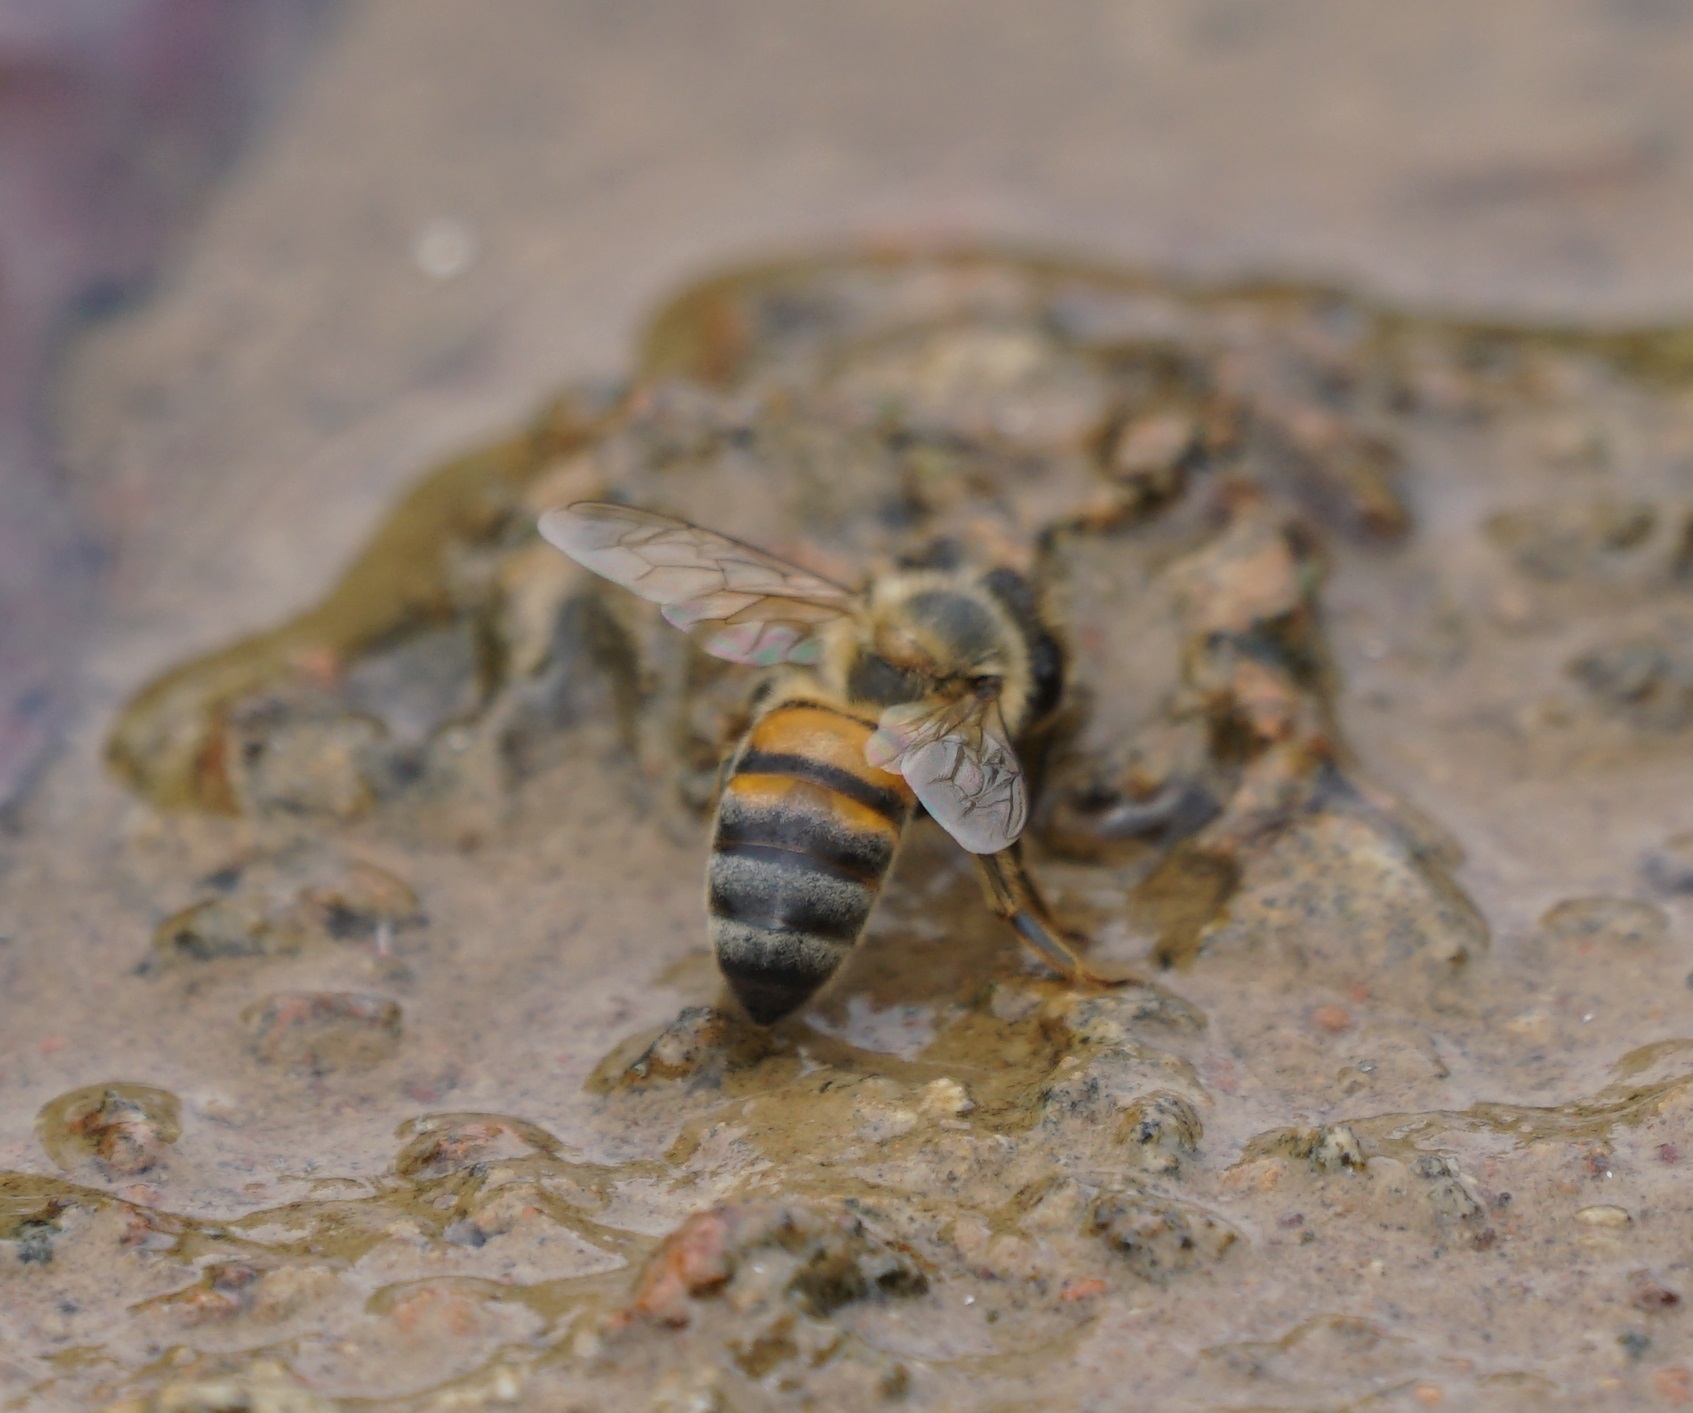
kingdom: Animalia
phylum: Arthropoda
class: Insecta
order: Hymenoptera
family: Apidae
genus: Apis
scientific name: Apis mellifera
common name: Honey bee
